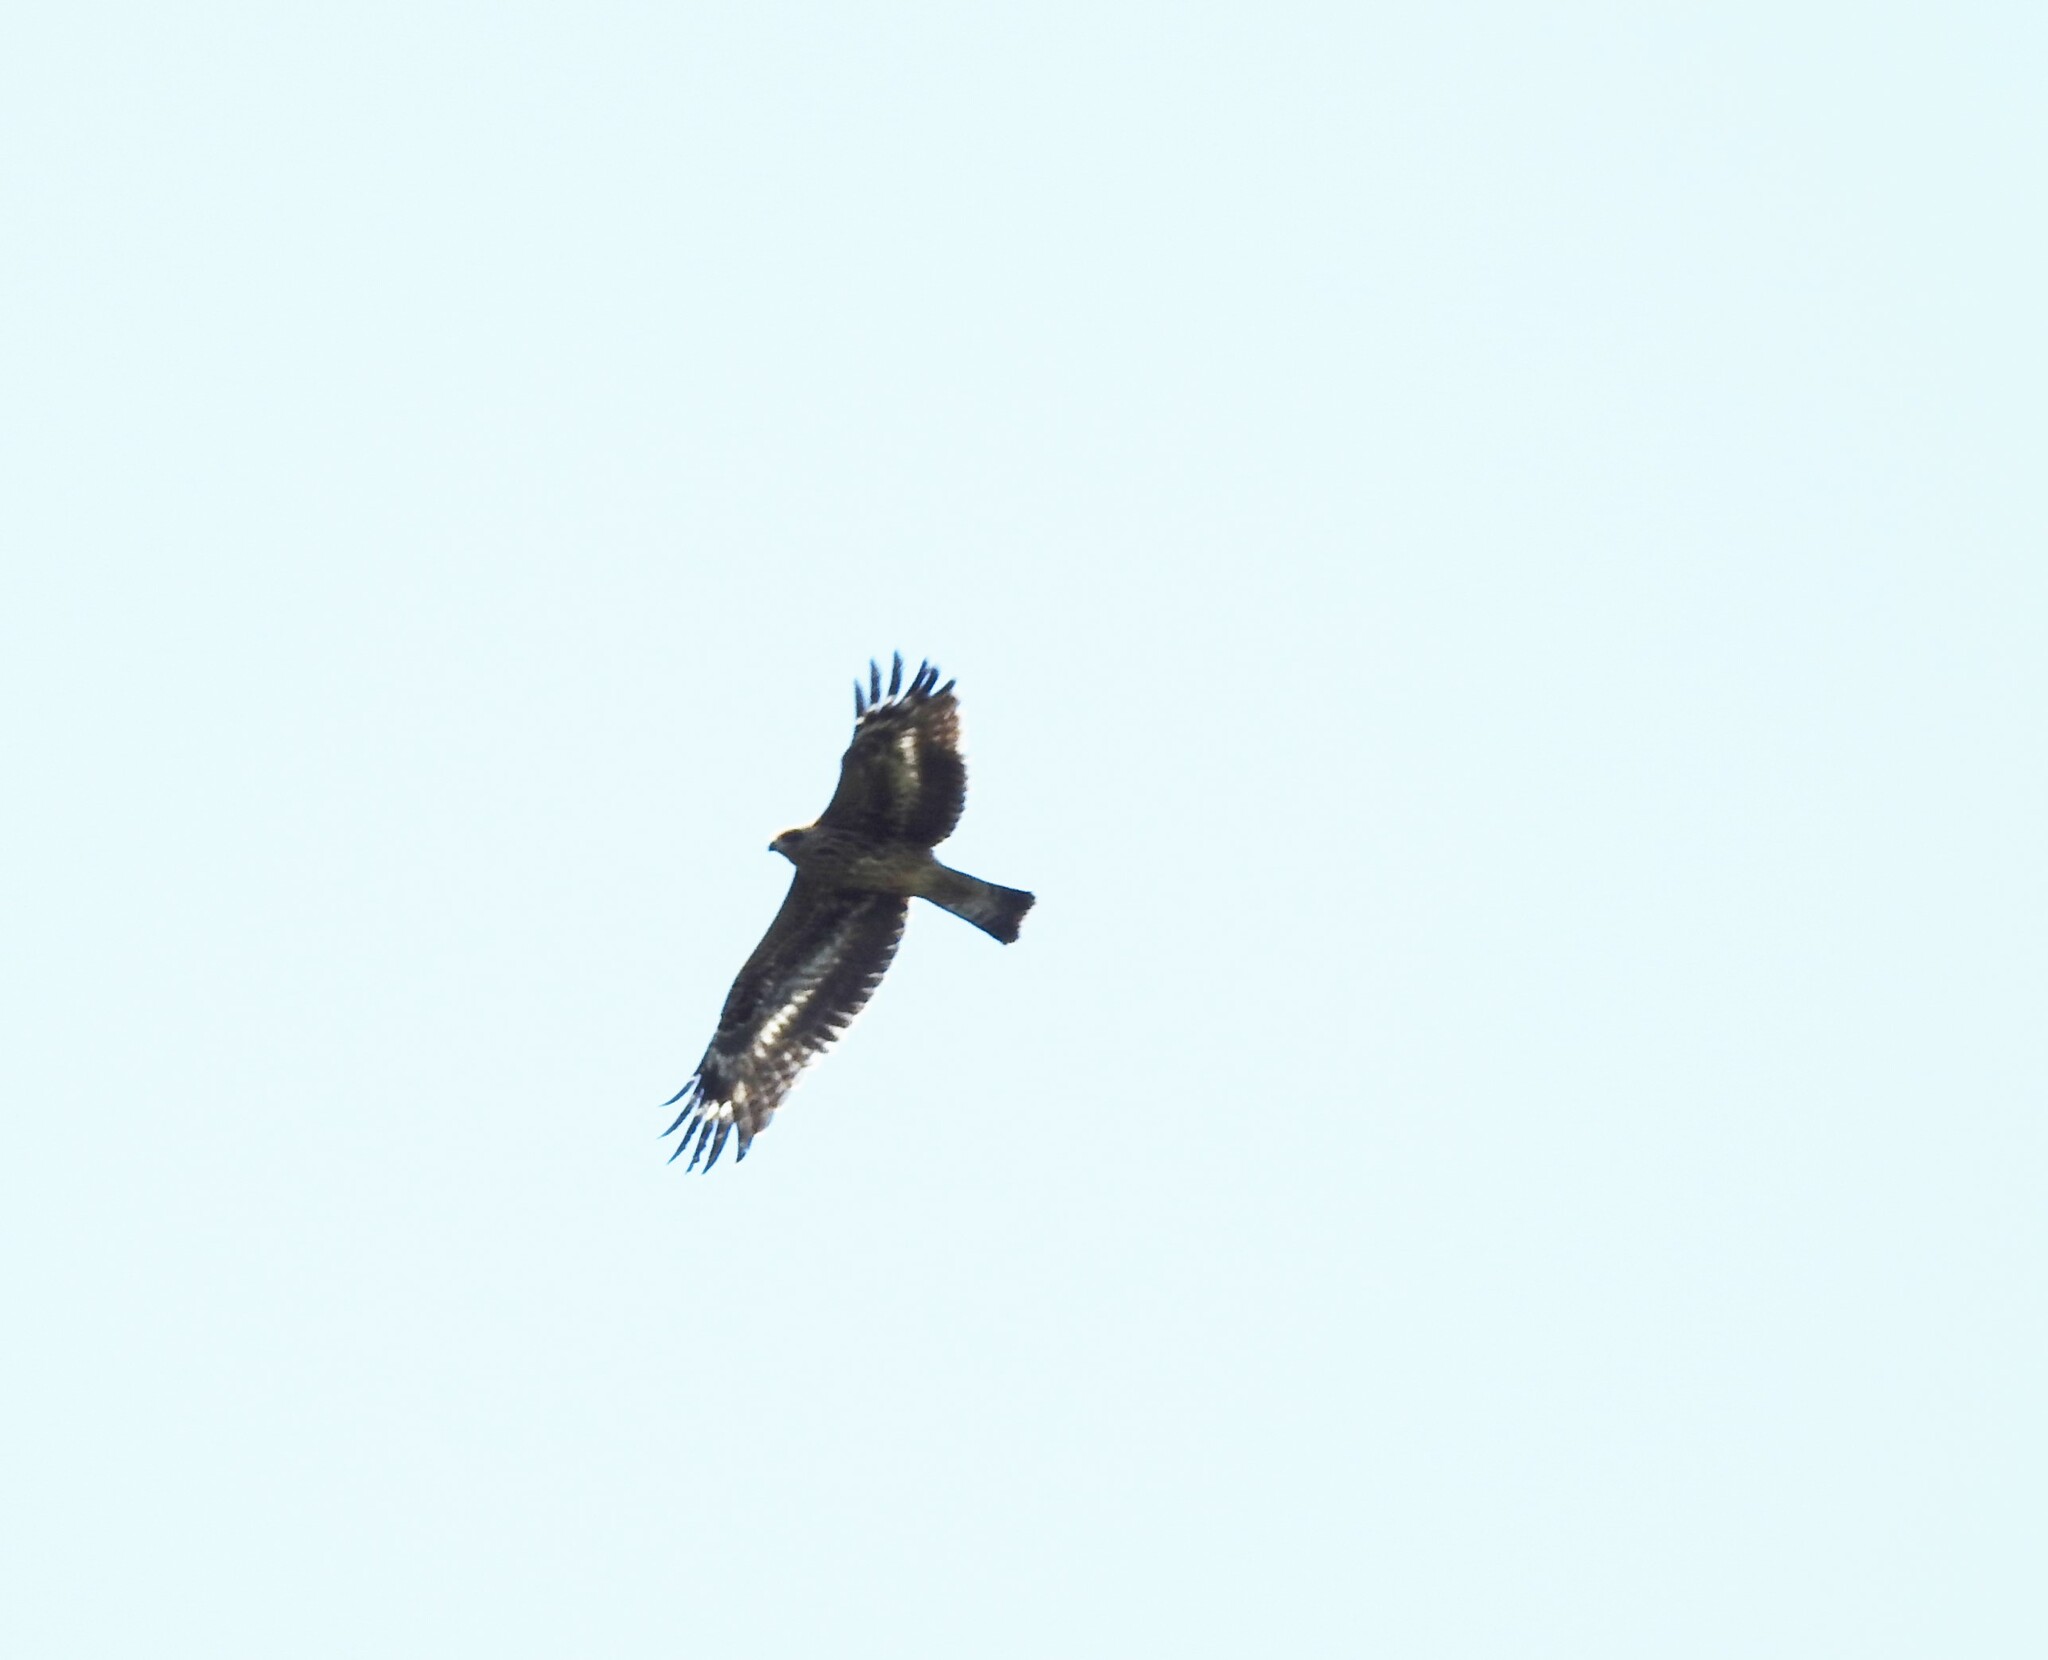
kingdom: Animalia
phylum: Chordata
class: Aves
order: Accipitriformes
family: Accipitridae
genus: Milvus
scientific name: Milvus migrans
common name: Black kite
